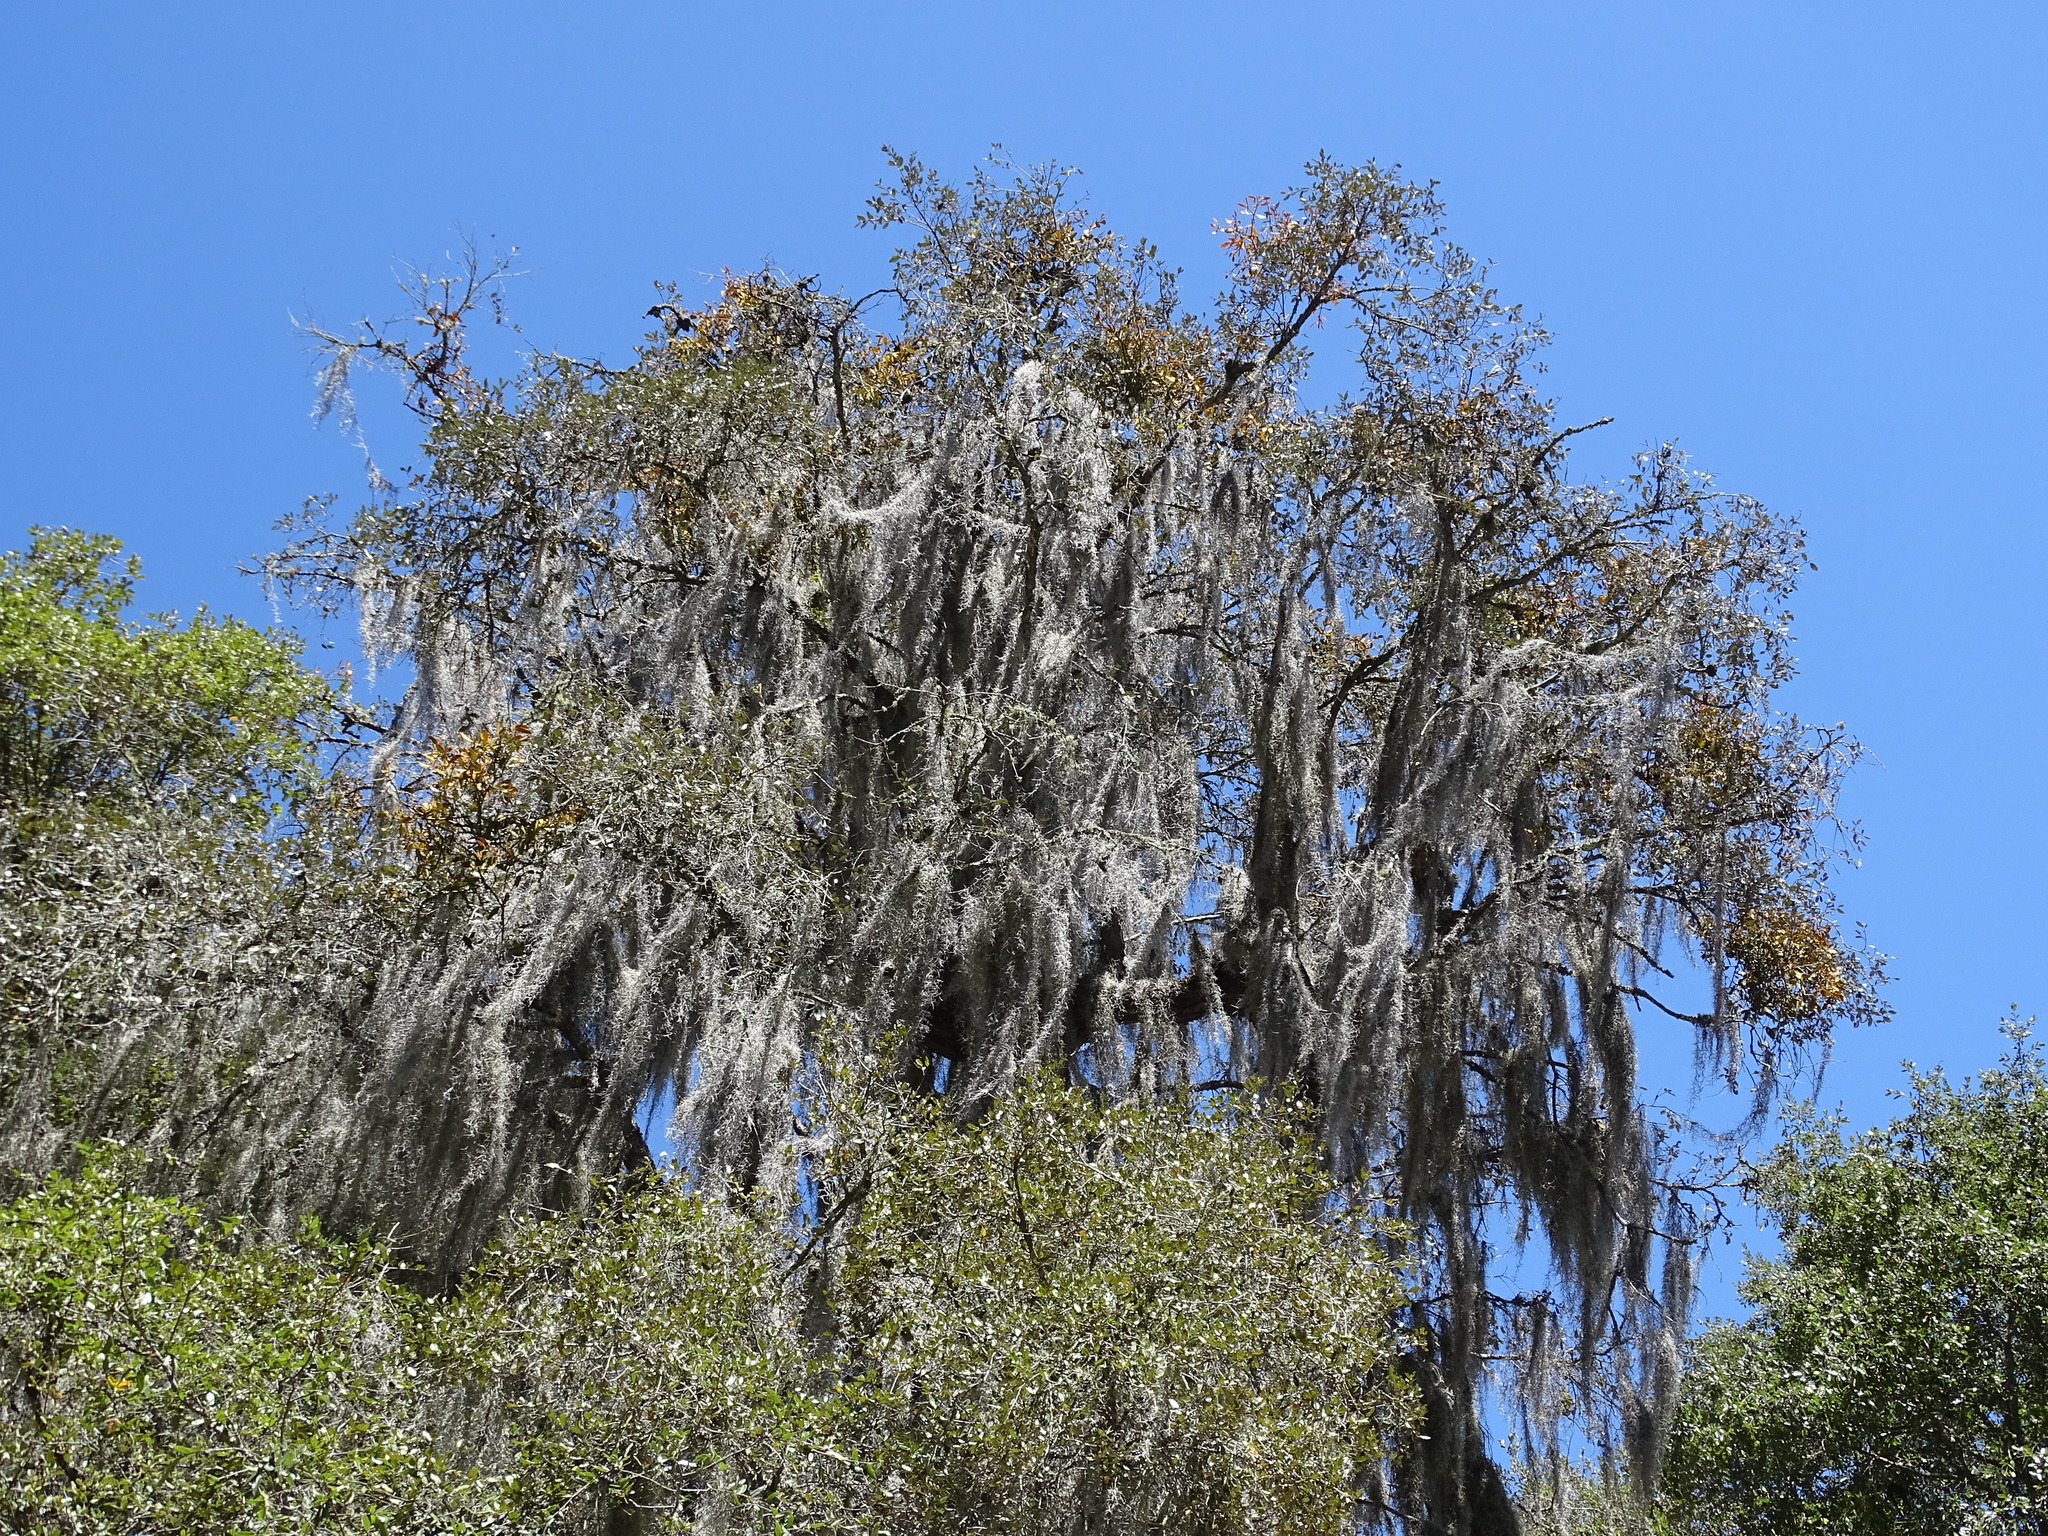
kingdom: Plantae
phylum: Tracheophyta
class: Liliopsida
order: Poales
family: Bromeliaceae
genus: Tillandsia
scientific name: Tillandsia usneoides
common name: Spanish moss
